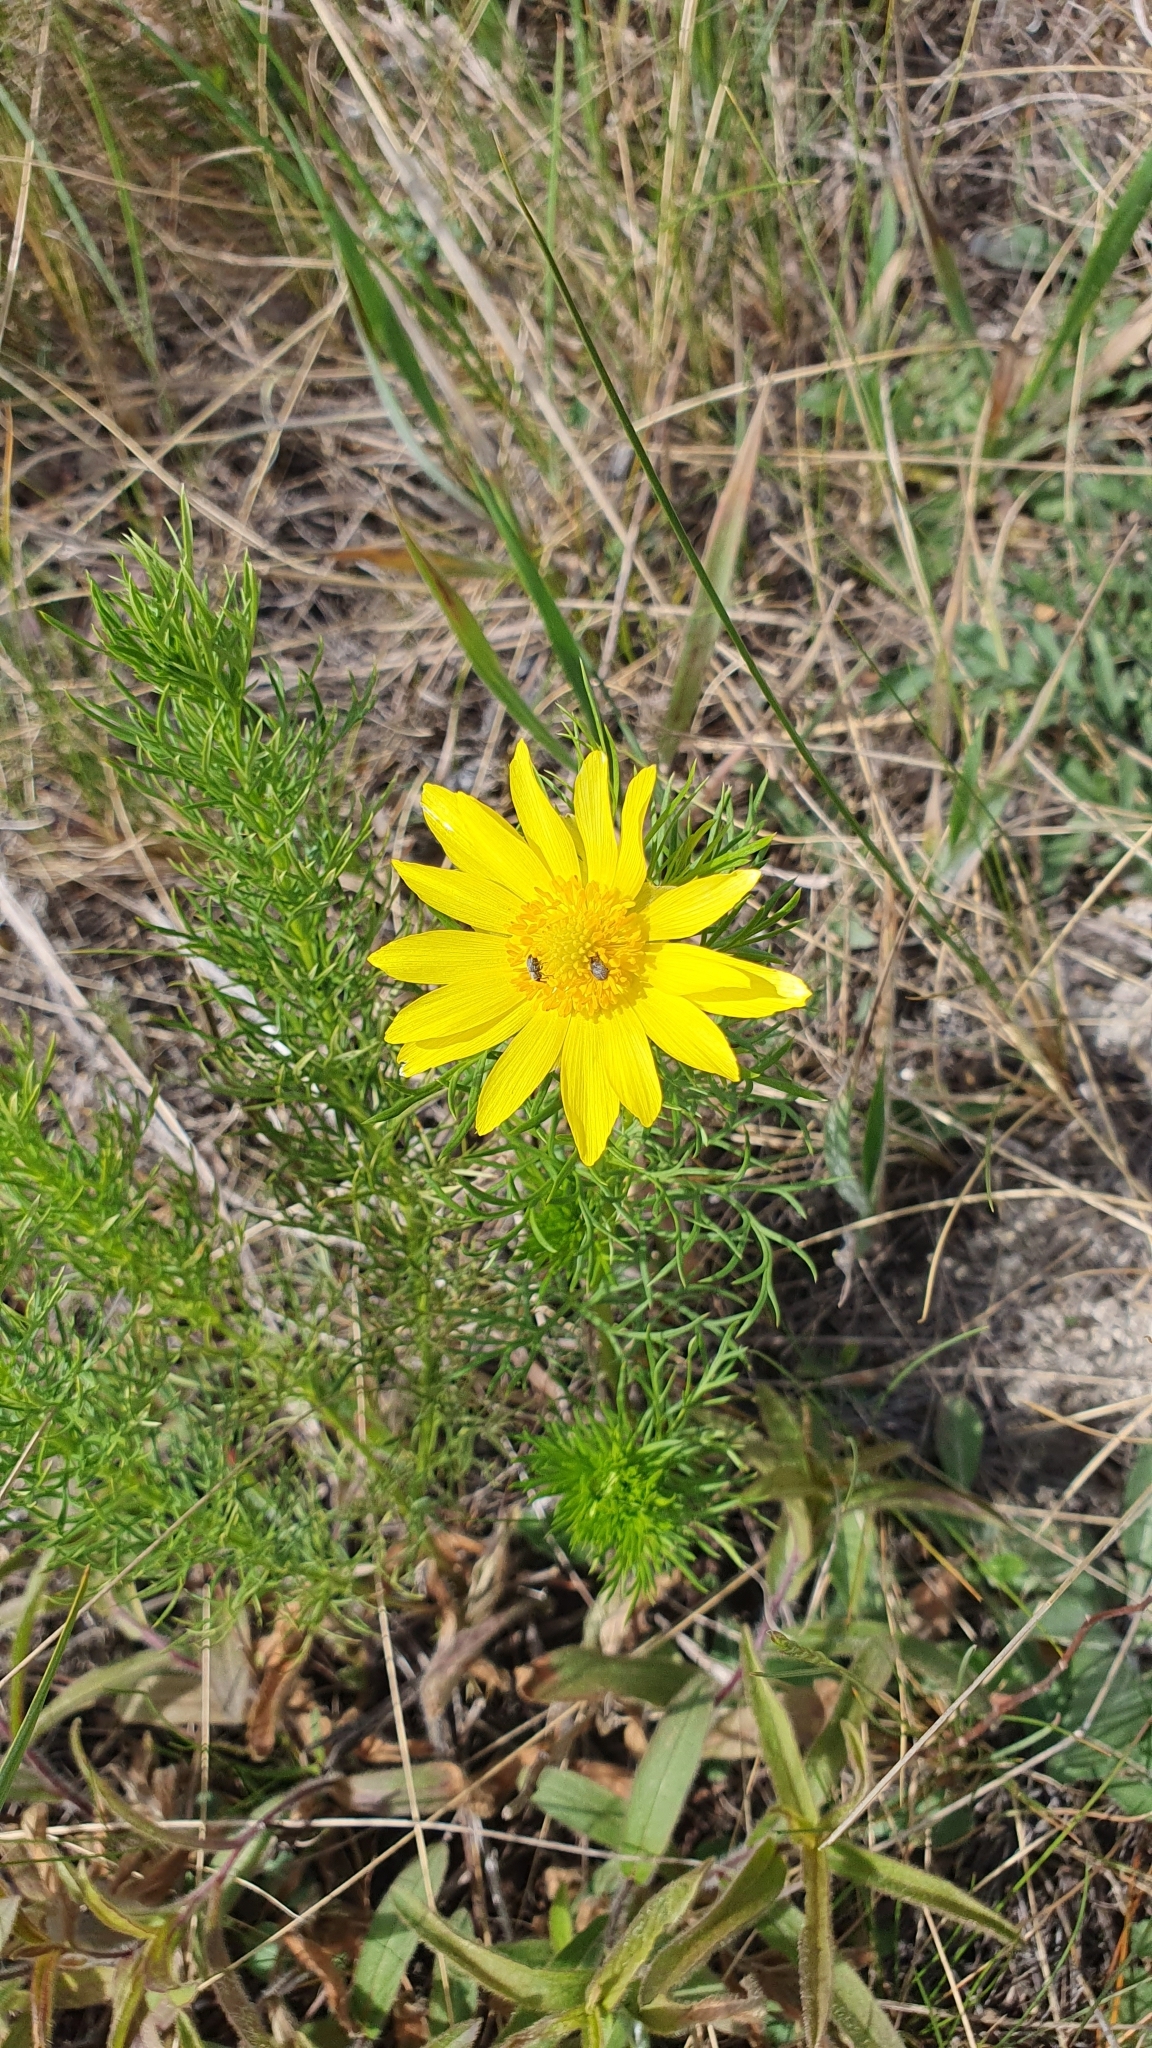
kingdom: Plantae
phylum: Tracheophyta
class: Magnoliopsida
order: Ranunculales
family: Ranunculaceae
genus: Adonis
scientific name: Adonis vernalis
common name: Yellow pheasants-eye
